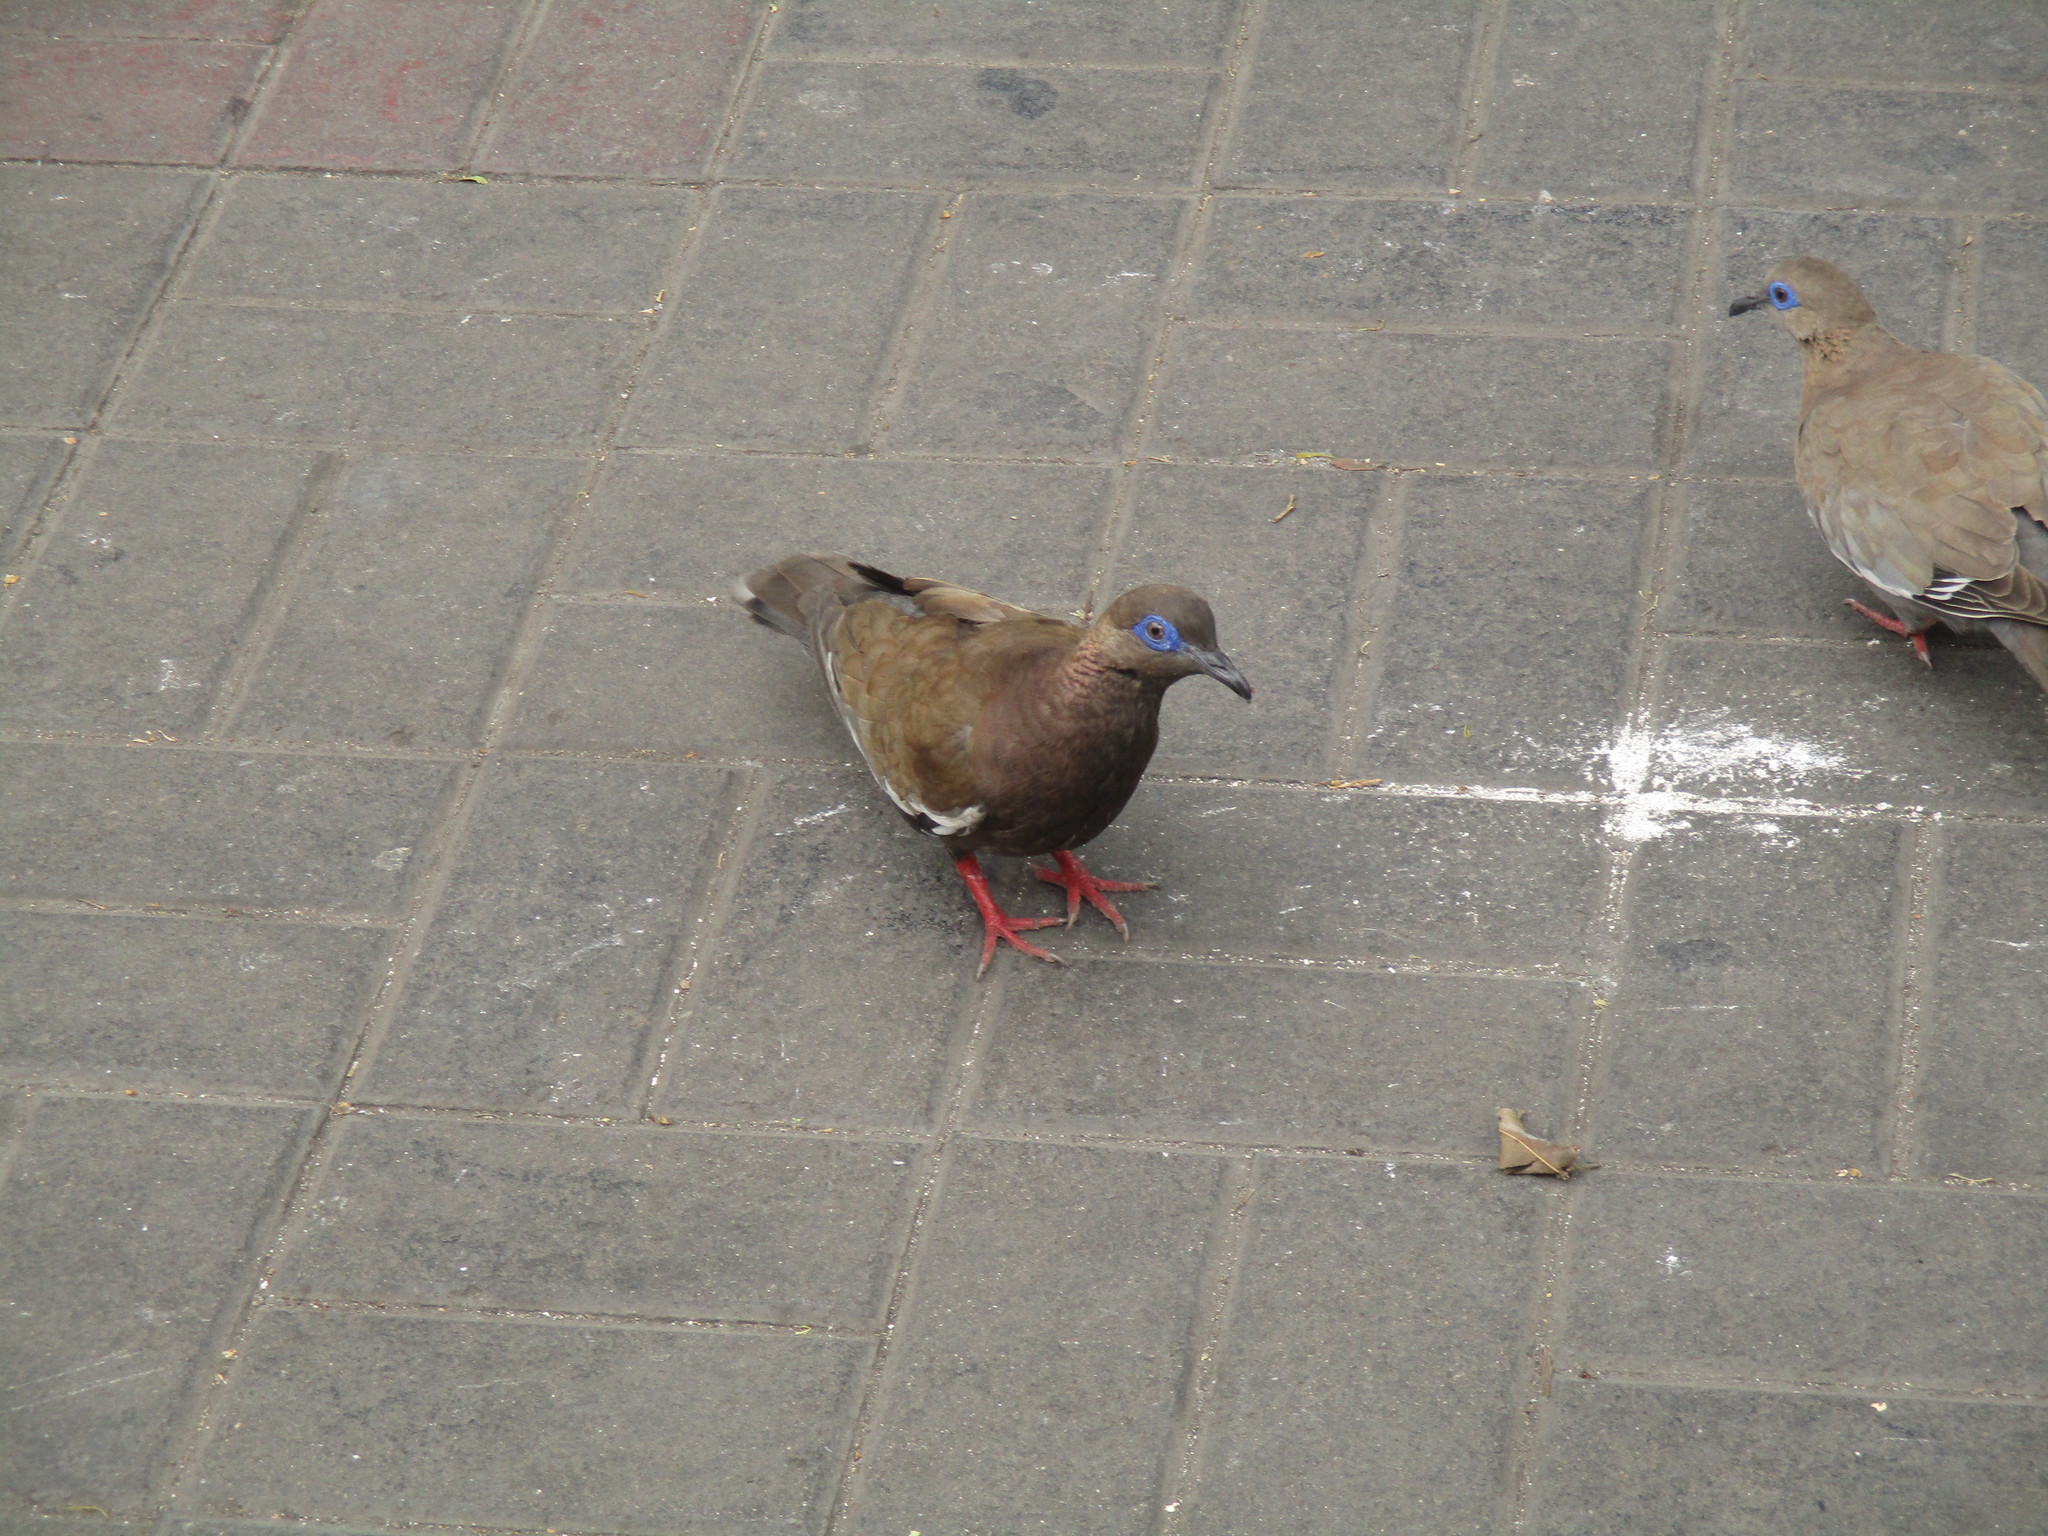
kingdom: Animalia
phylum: Chordata
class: Aves
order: Columbiformes
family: Columbidae
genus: Zenaida
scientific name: Zenaida meloda
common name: West peruvian dove
